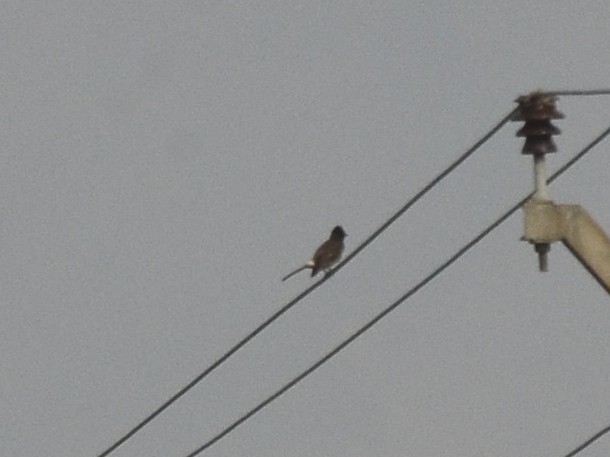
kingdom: Animalia
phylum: Chordata
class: Aves
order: Passeriformes
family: Pycnonotidae
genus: Pycnonotus
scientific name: Pycnonotus cafer
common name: Red-vented bulbul
